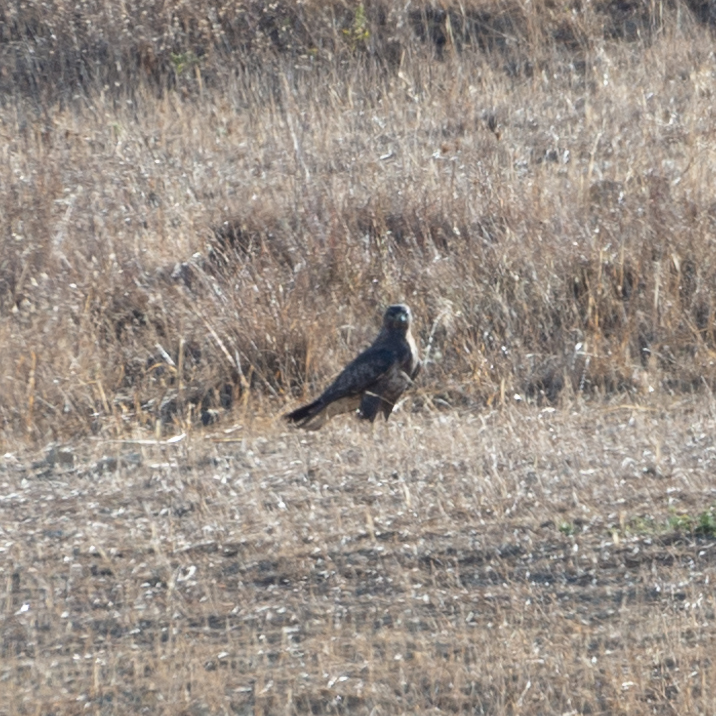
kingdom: Animalia
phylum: Chordata
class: Aves
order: Accipitriformes
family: Accipitridae
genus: Buteo
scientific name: Buteo buteo
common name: Common buzzard
